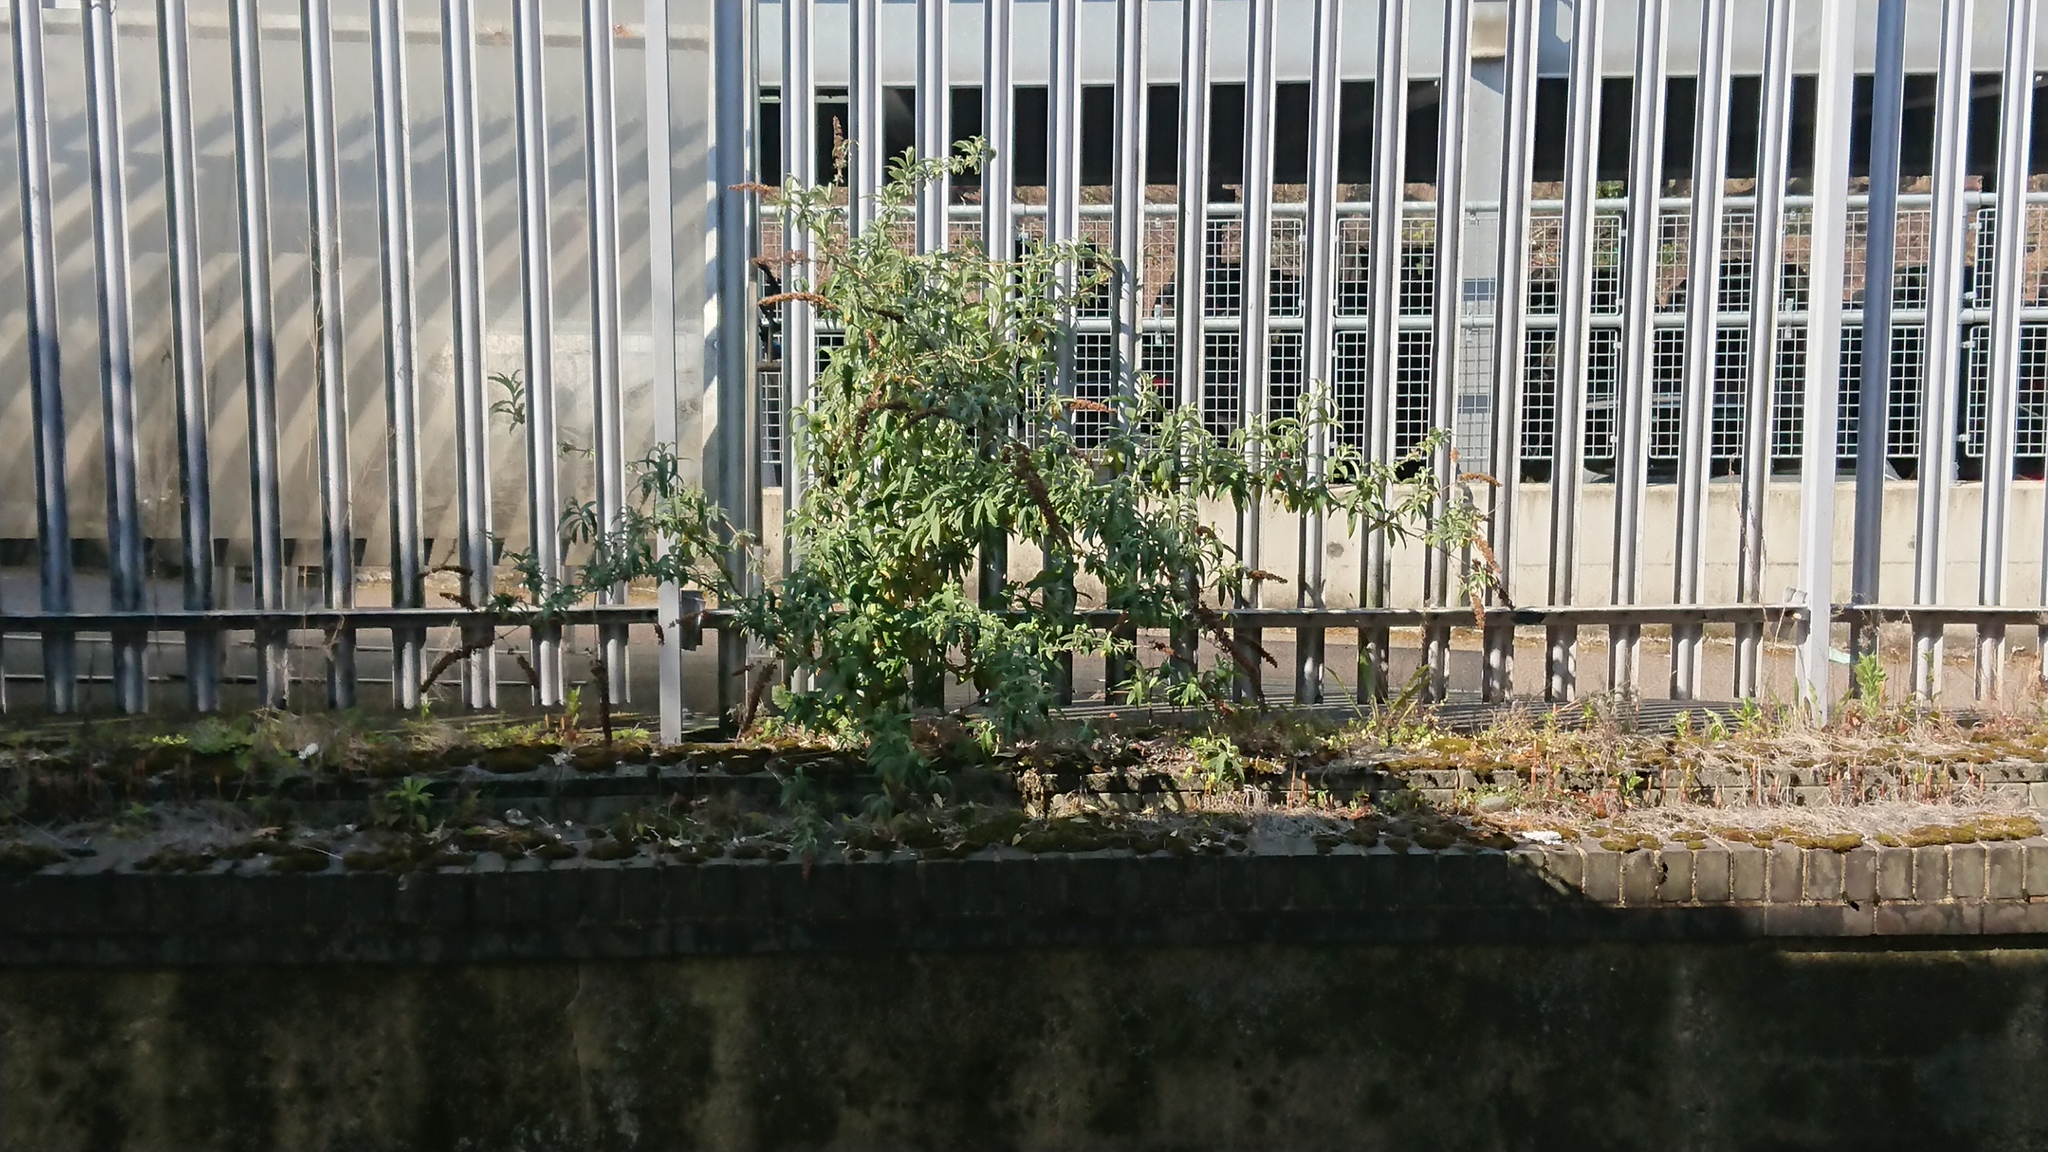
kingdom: Plantae
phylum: Tracheophyta
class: Magnoliopsida
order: Lamiales
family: Scrophulariaceae
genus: Buddleja
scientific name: Buddleja davidii
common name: Butterfly-bush
